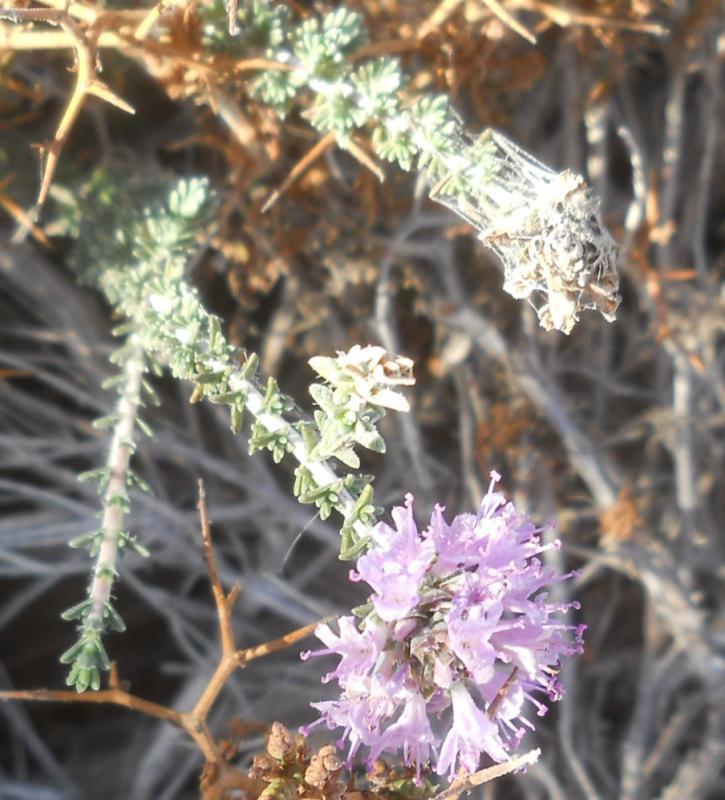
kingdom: Plantae
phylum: Tracheophyta
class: Magnoliopsida
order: Lamiales
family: Lamiaceae
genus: Thymbra
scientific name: Thymbra capitata
